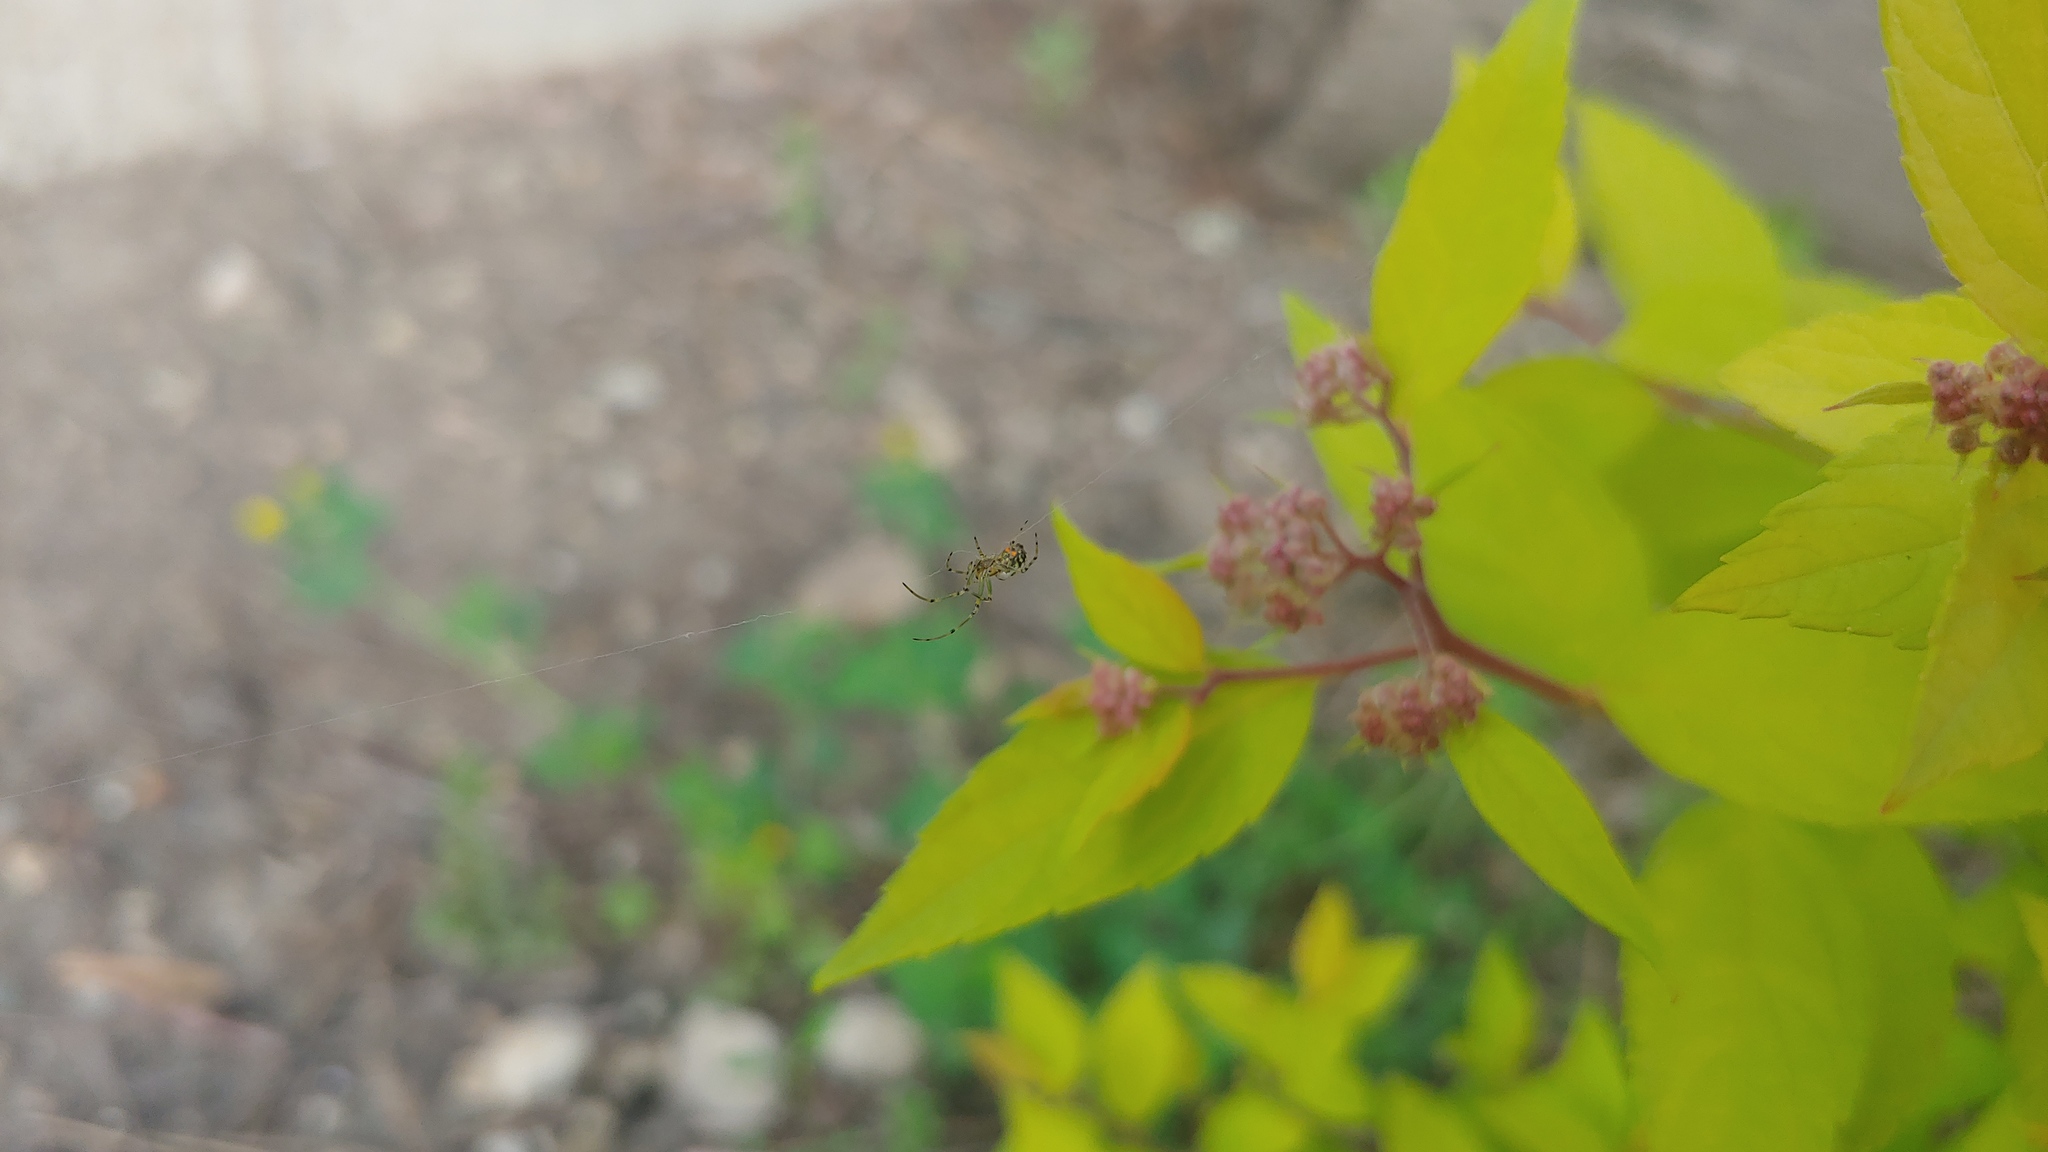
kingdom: Animalia
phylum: Arthropoda
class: Arachnida
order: Araneae
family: Tetragnathidae
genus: Leucauge
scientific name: Leucauge venusta
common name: Longjawed orb weavers
